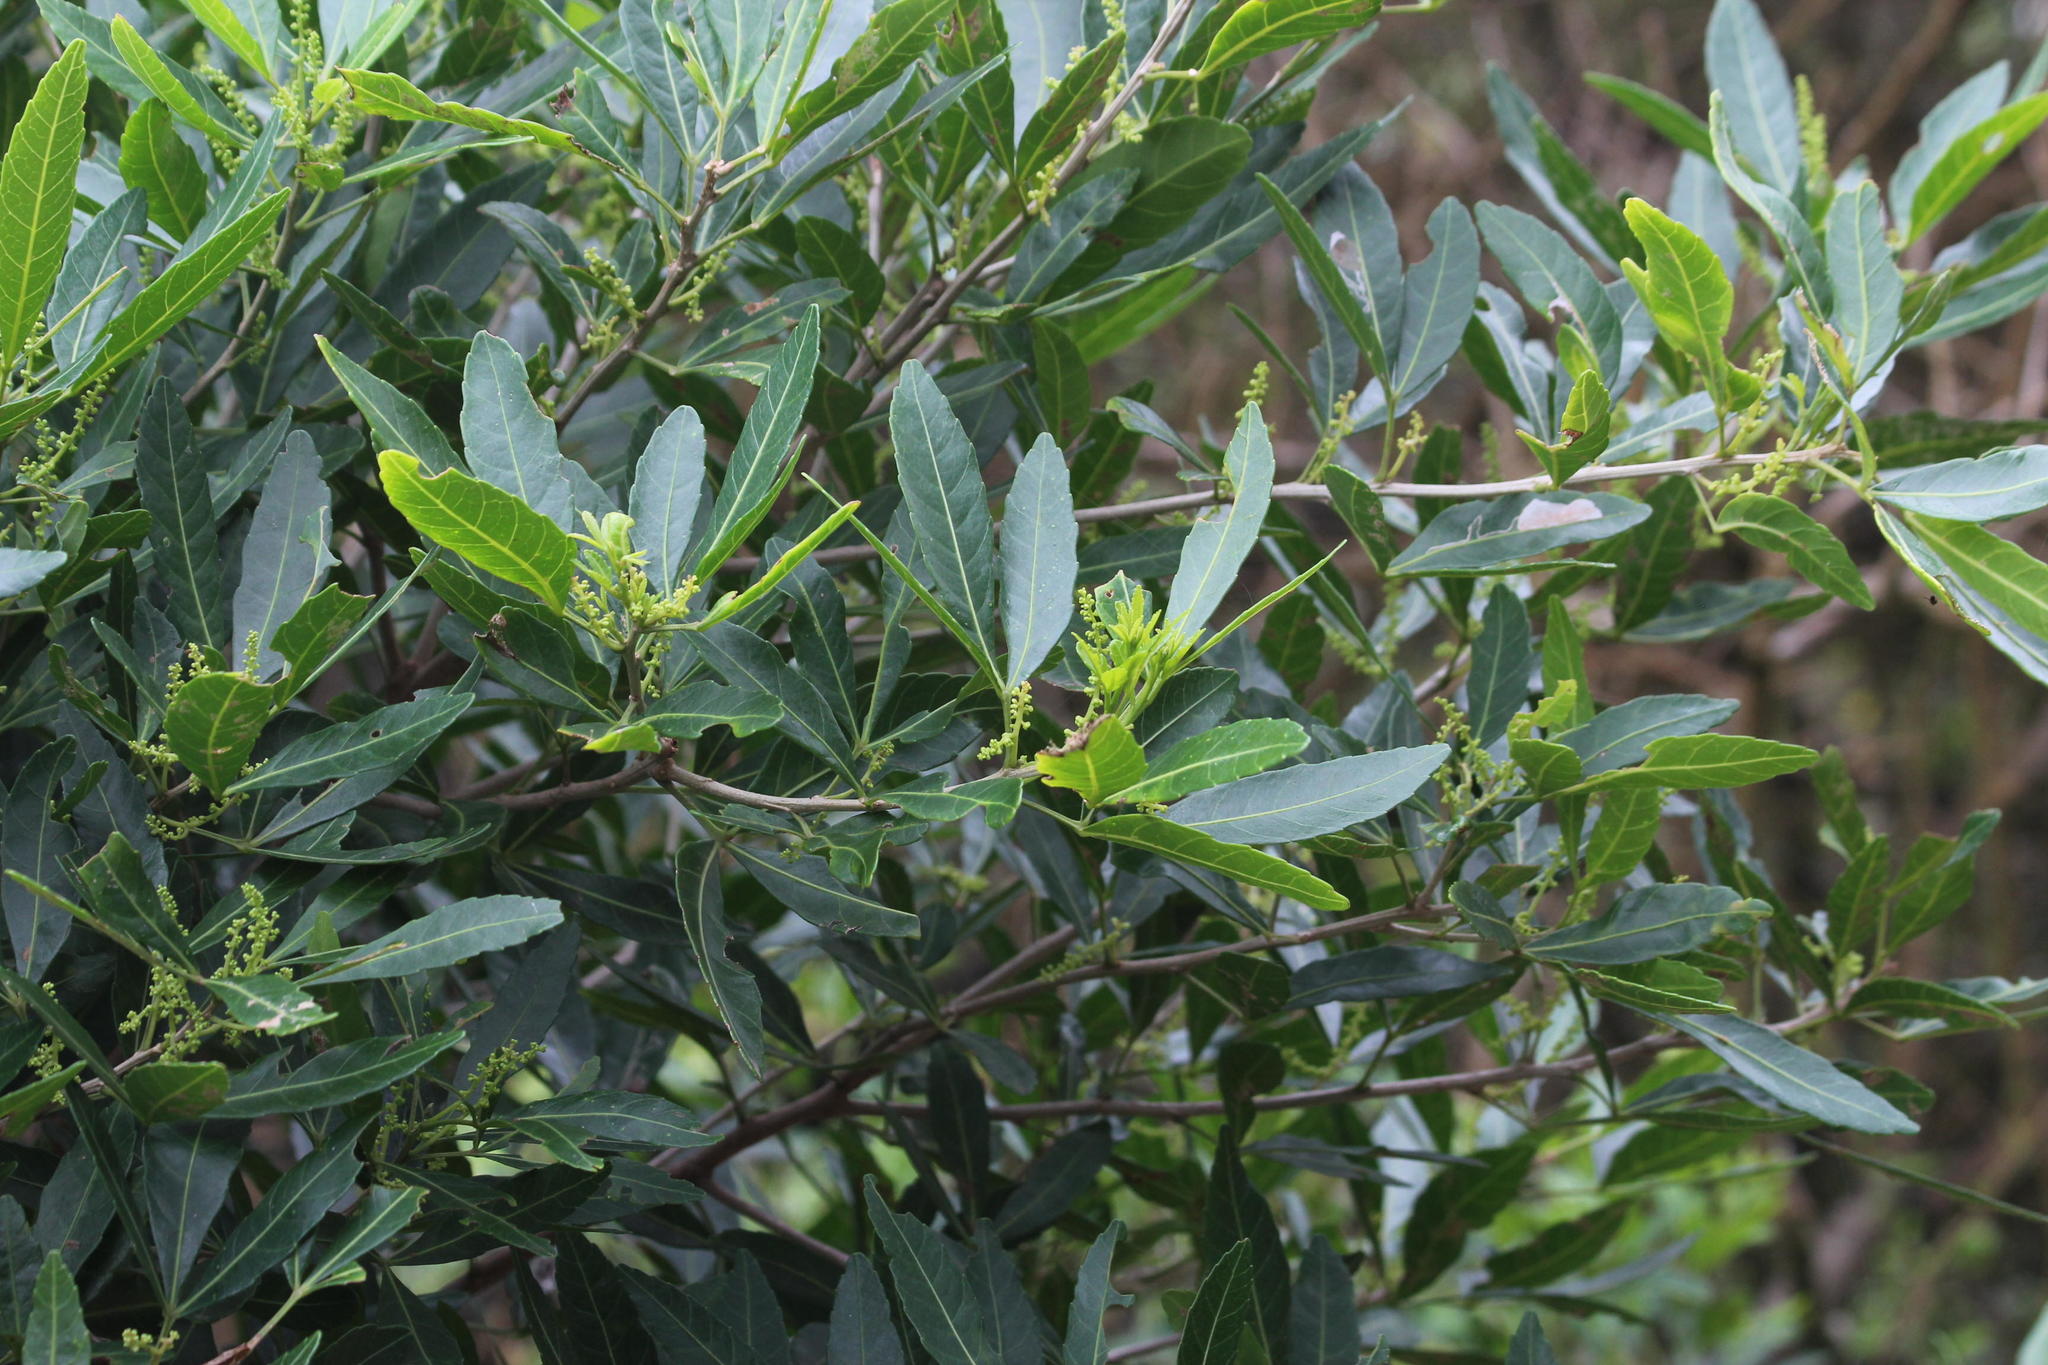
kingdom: Plantae
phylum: Tracheophyta
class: Magnoliopsida
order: Sapindales
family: Sapindaceae
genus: Allophylus
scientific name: Allophylus natalensis
